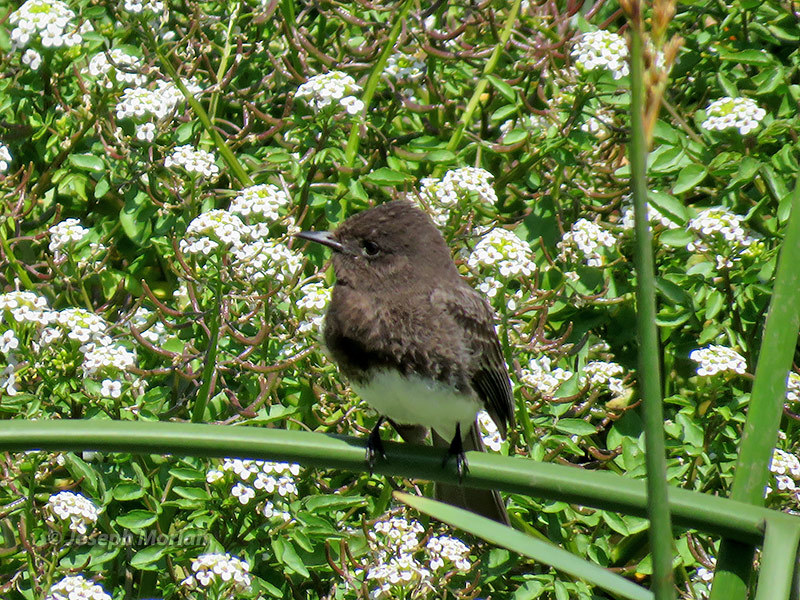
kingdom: Animalia
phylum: Chordata
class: Aves
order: Passeriformes
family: Tyrannidae
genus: Sayornis
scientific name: Sayornis nigricans
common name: Black phoebe
